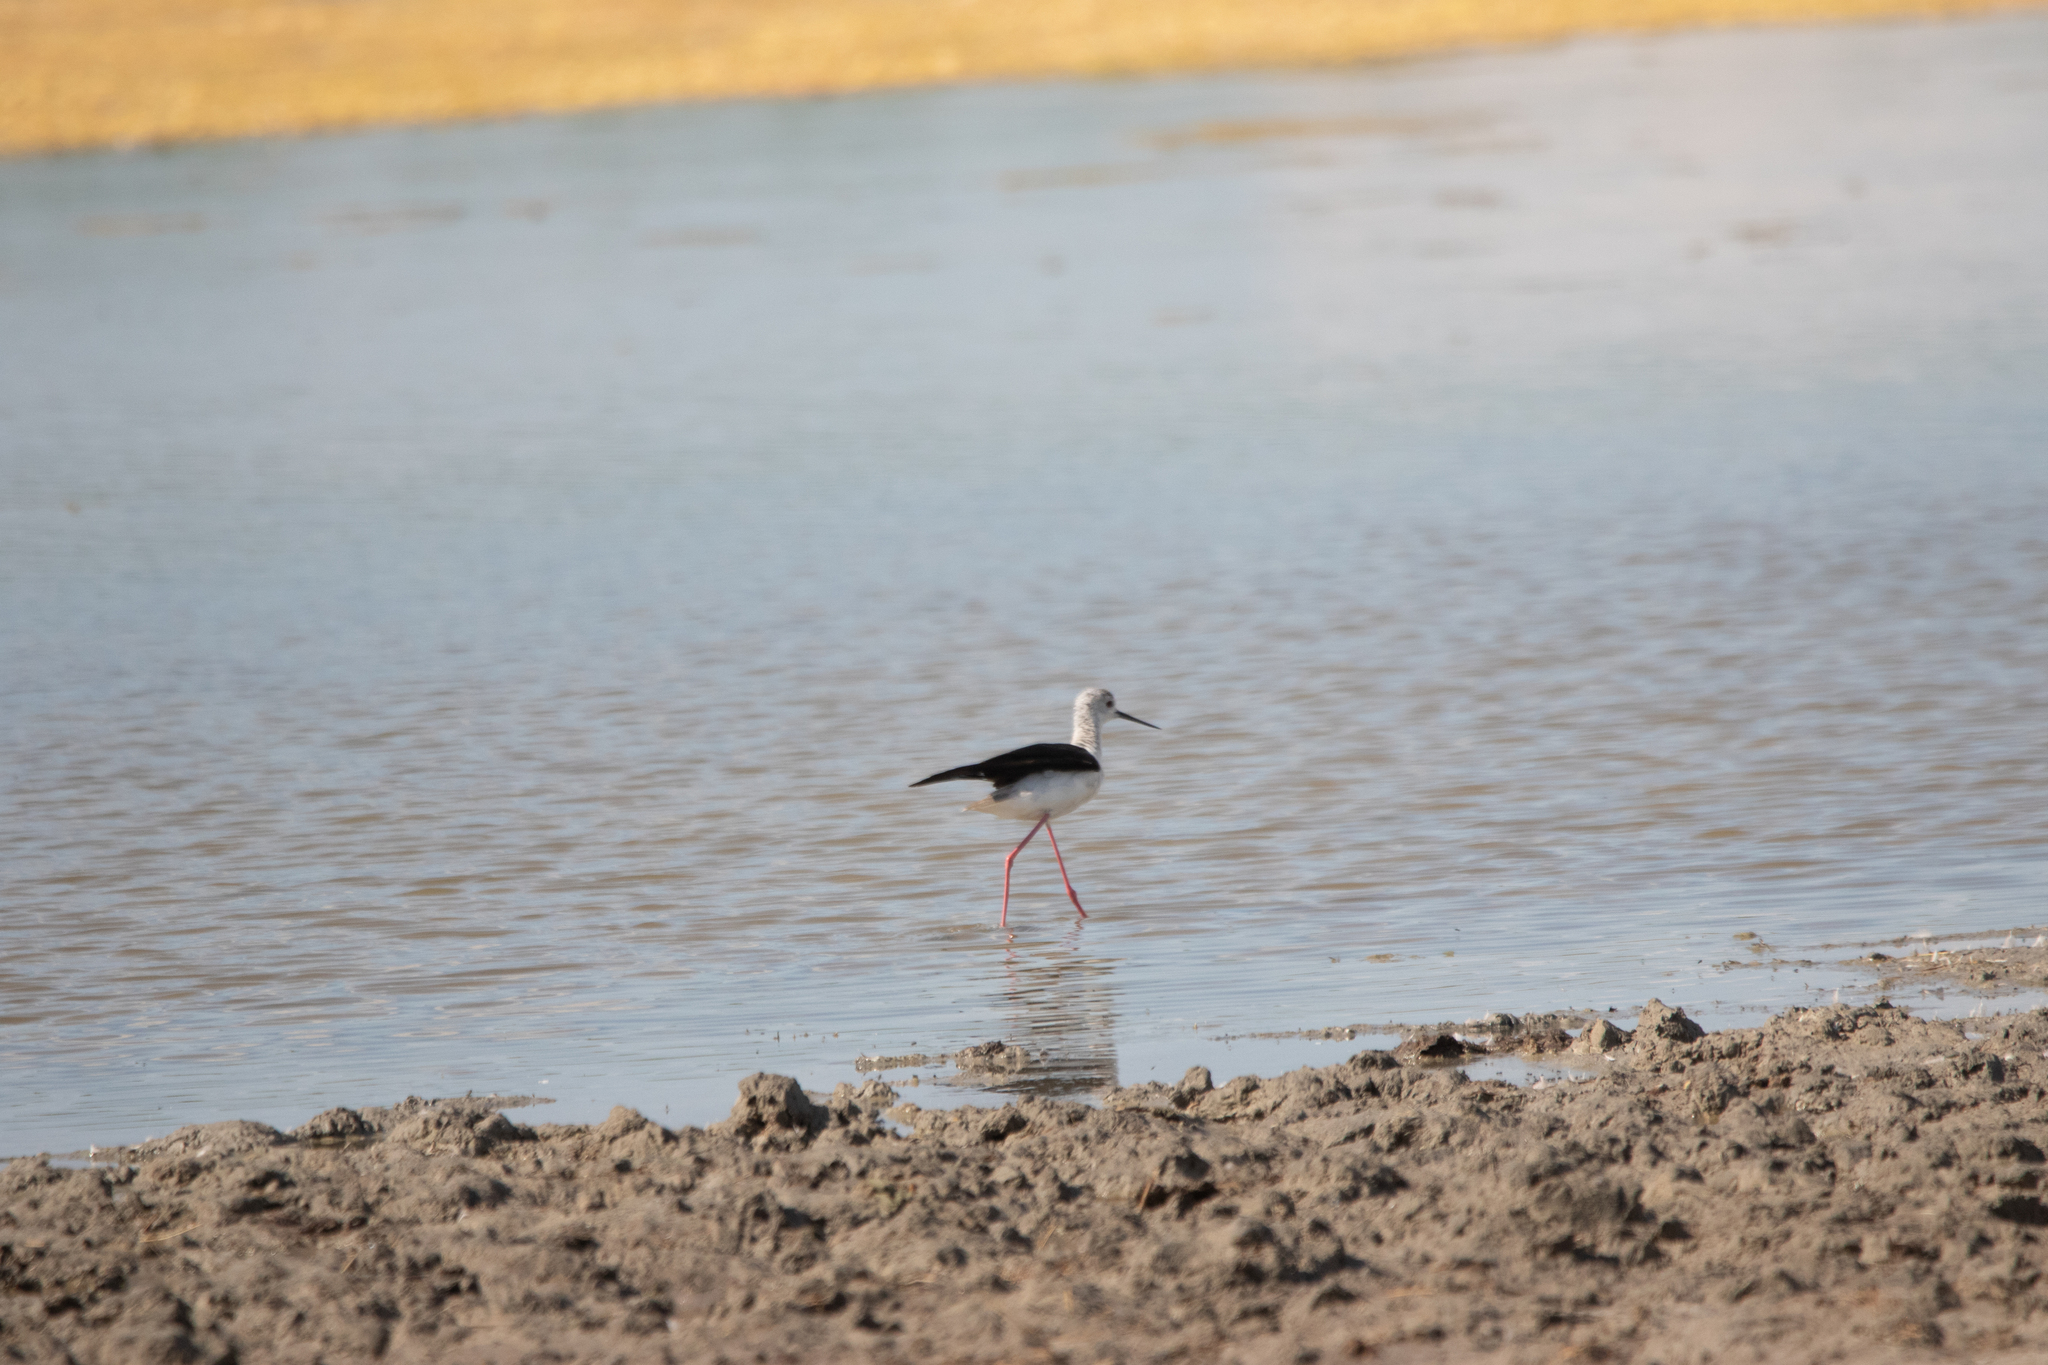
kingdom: Animalia
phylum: Chordata
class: Aves
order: Charadriiformes
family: Recurvirostridae
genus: Himantopus
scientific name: Himantopus himantopus
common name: Black-winged stilt
